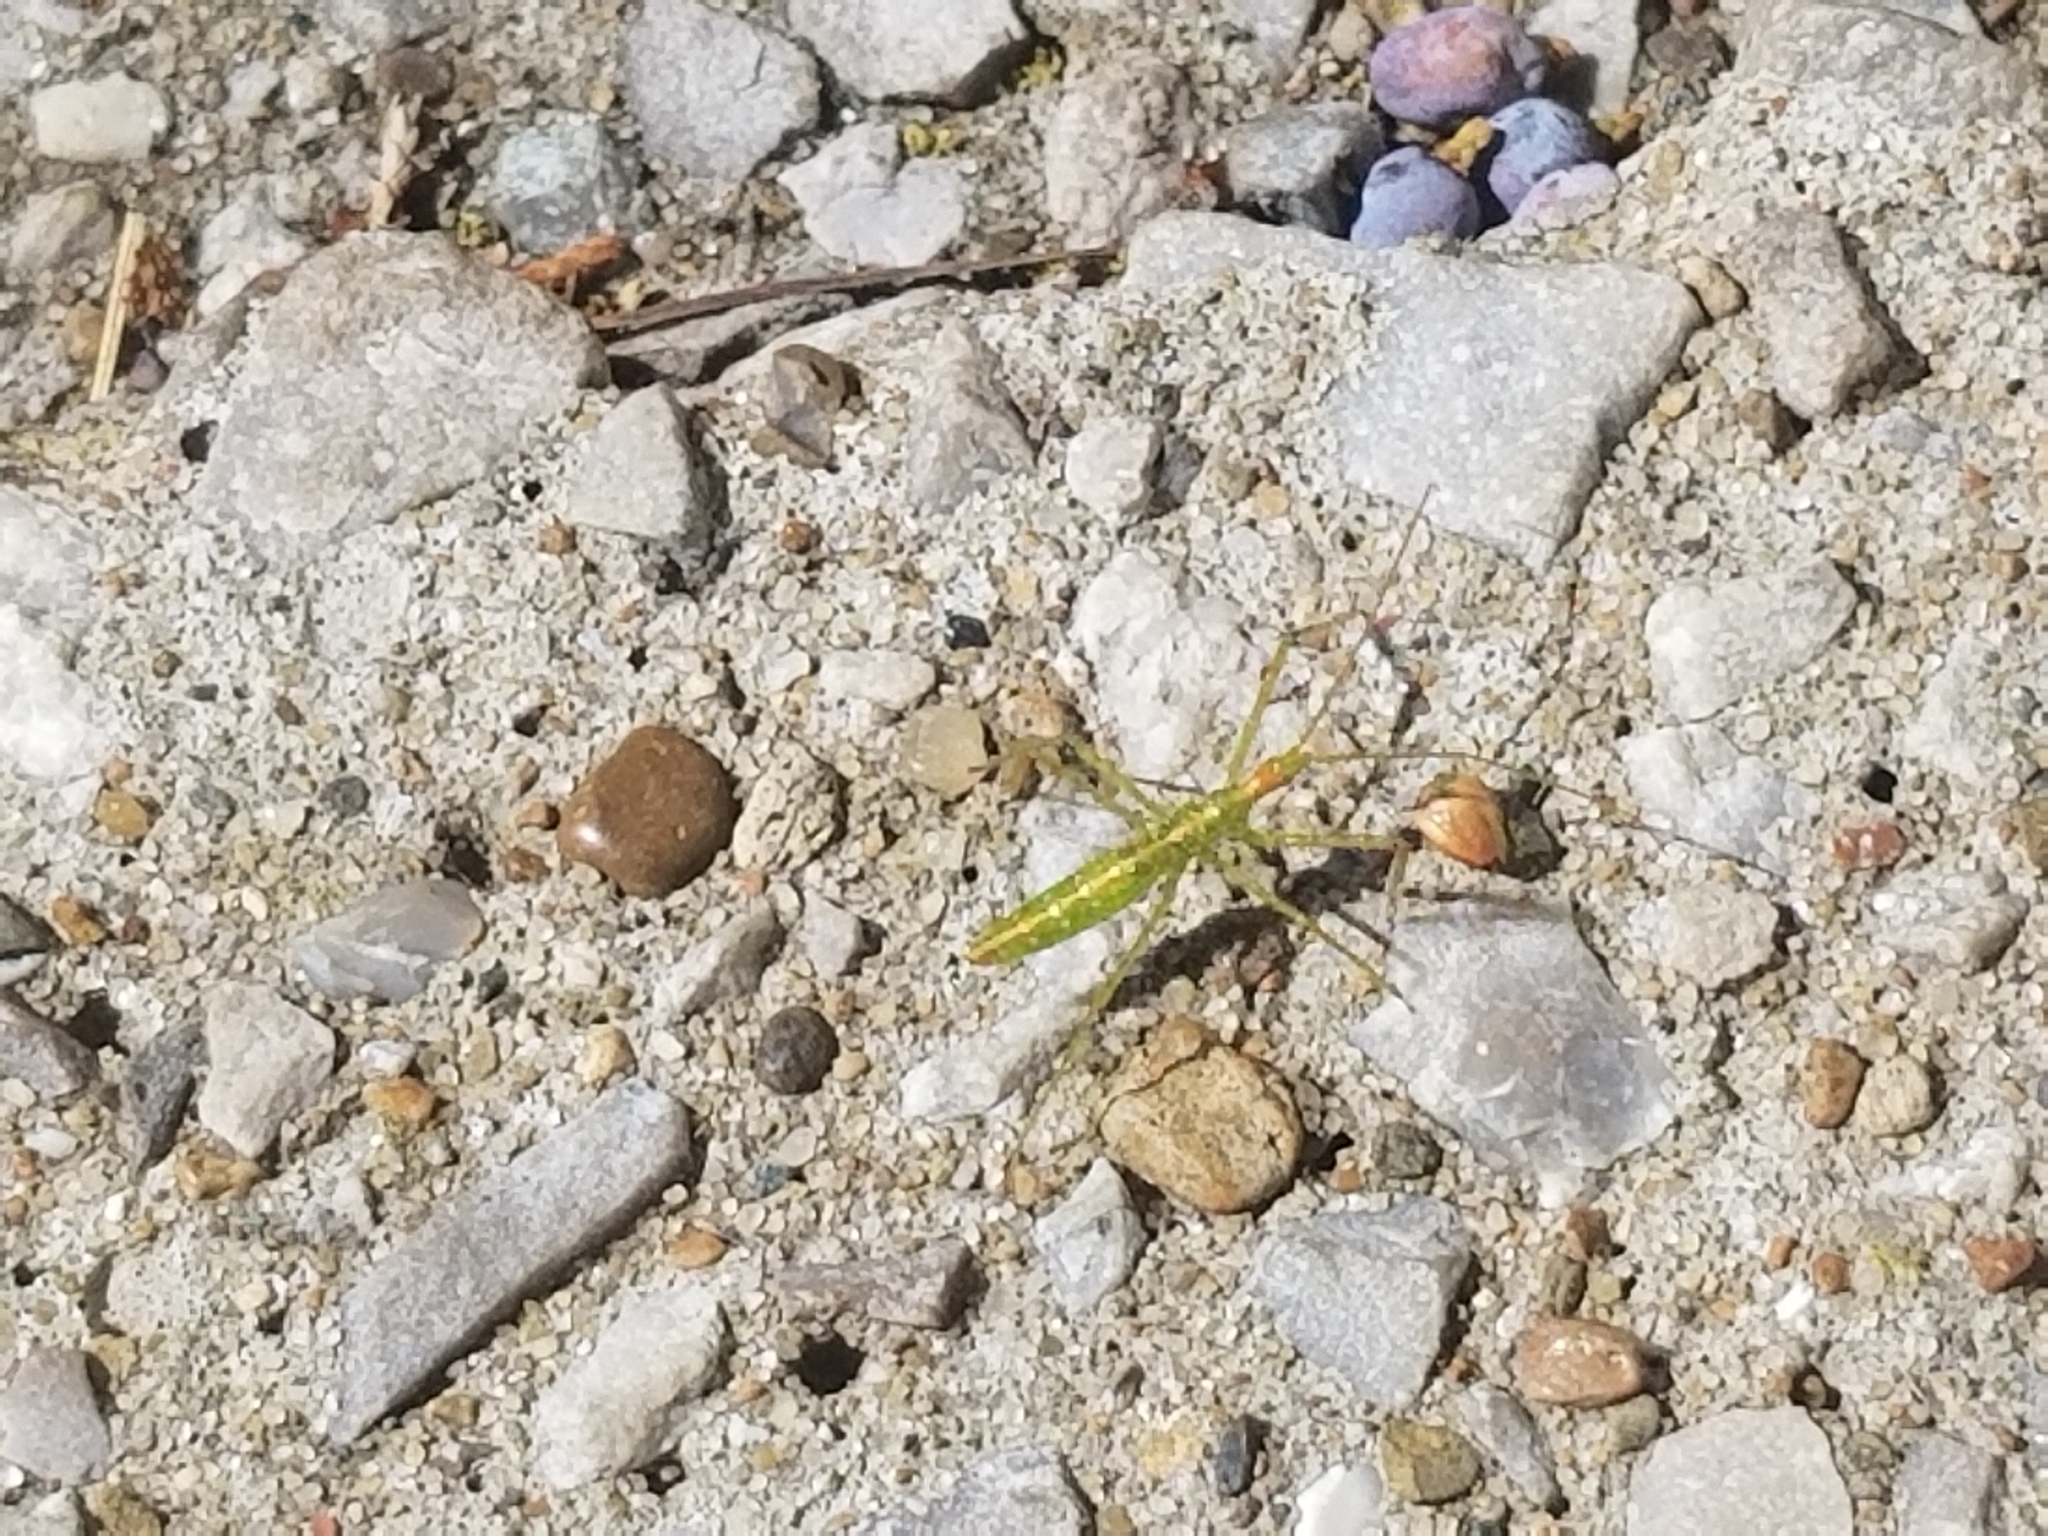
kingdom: Animalia
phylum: Arthropoda
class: Insecta
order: Hemiptera
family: Reduviidae
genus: Zelus
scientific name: Zelus luridus
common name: Pale green assassin bug
